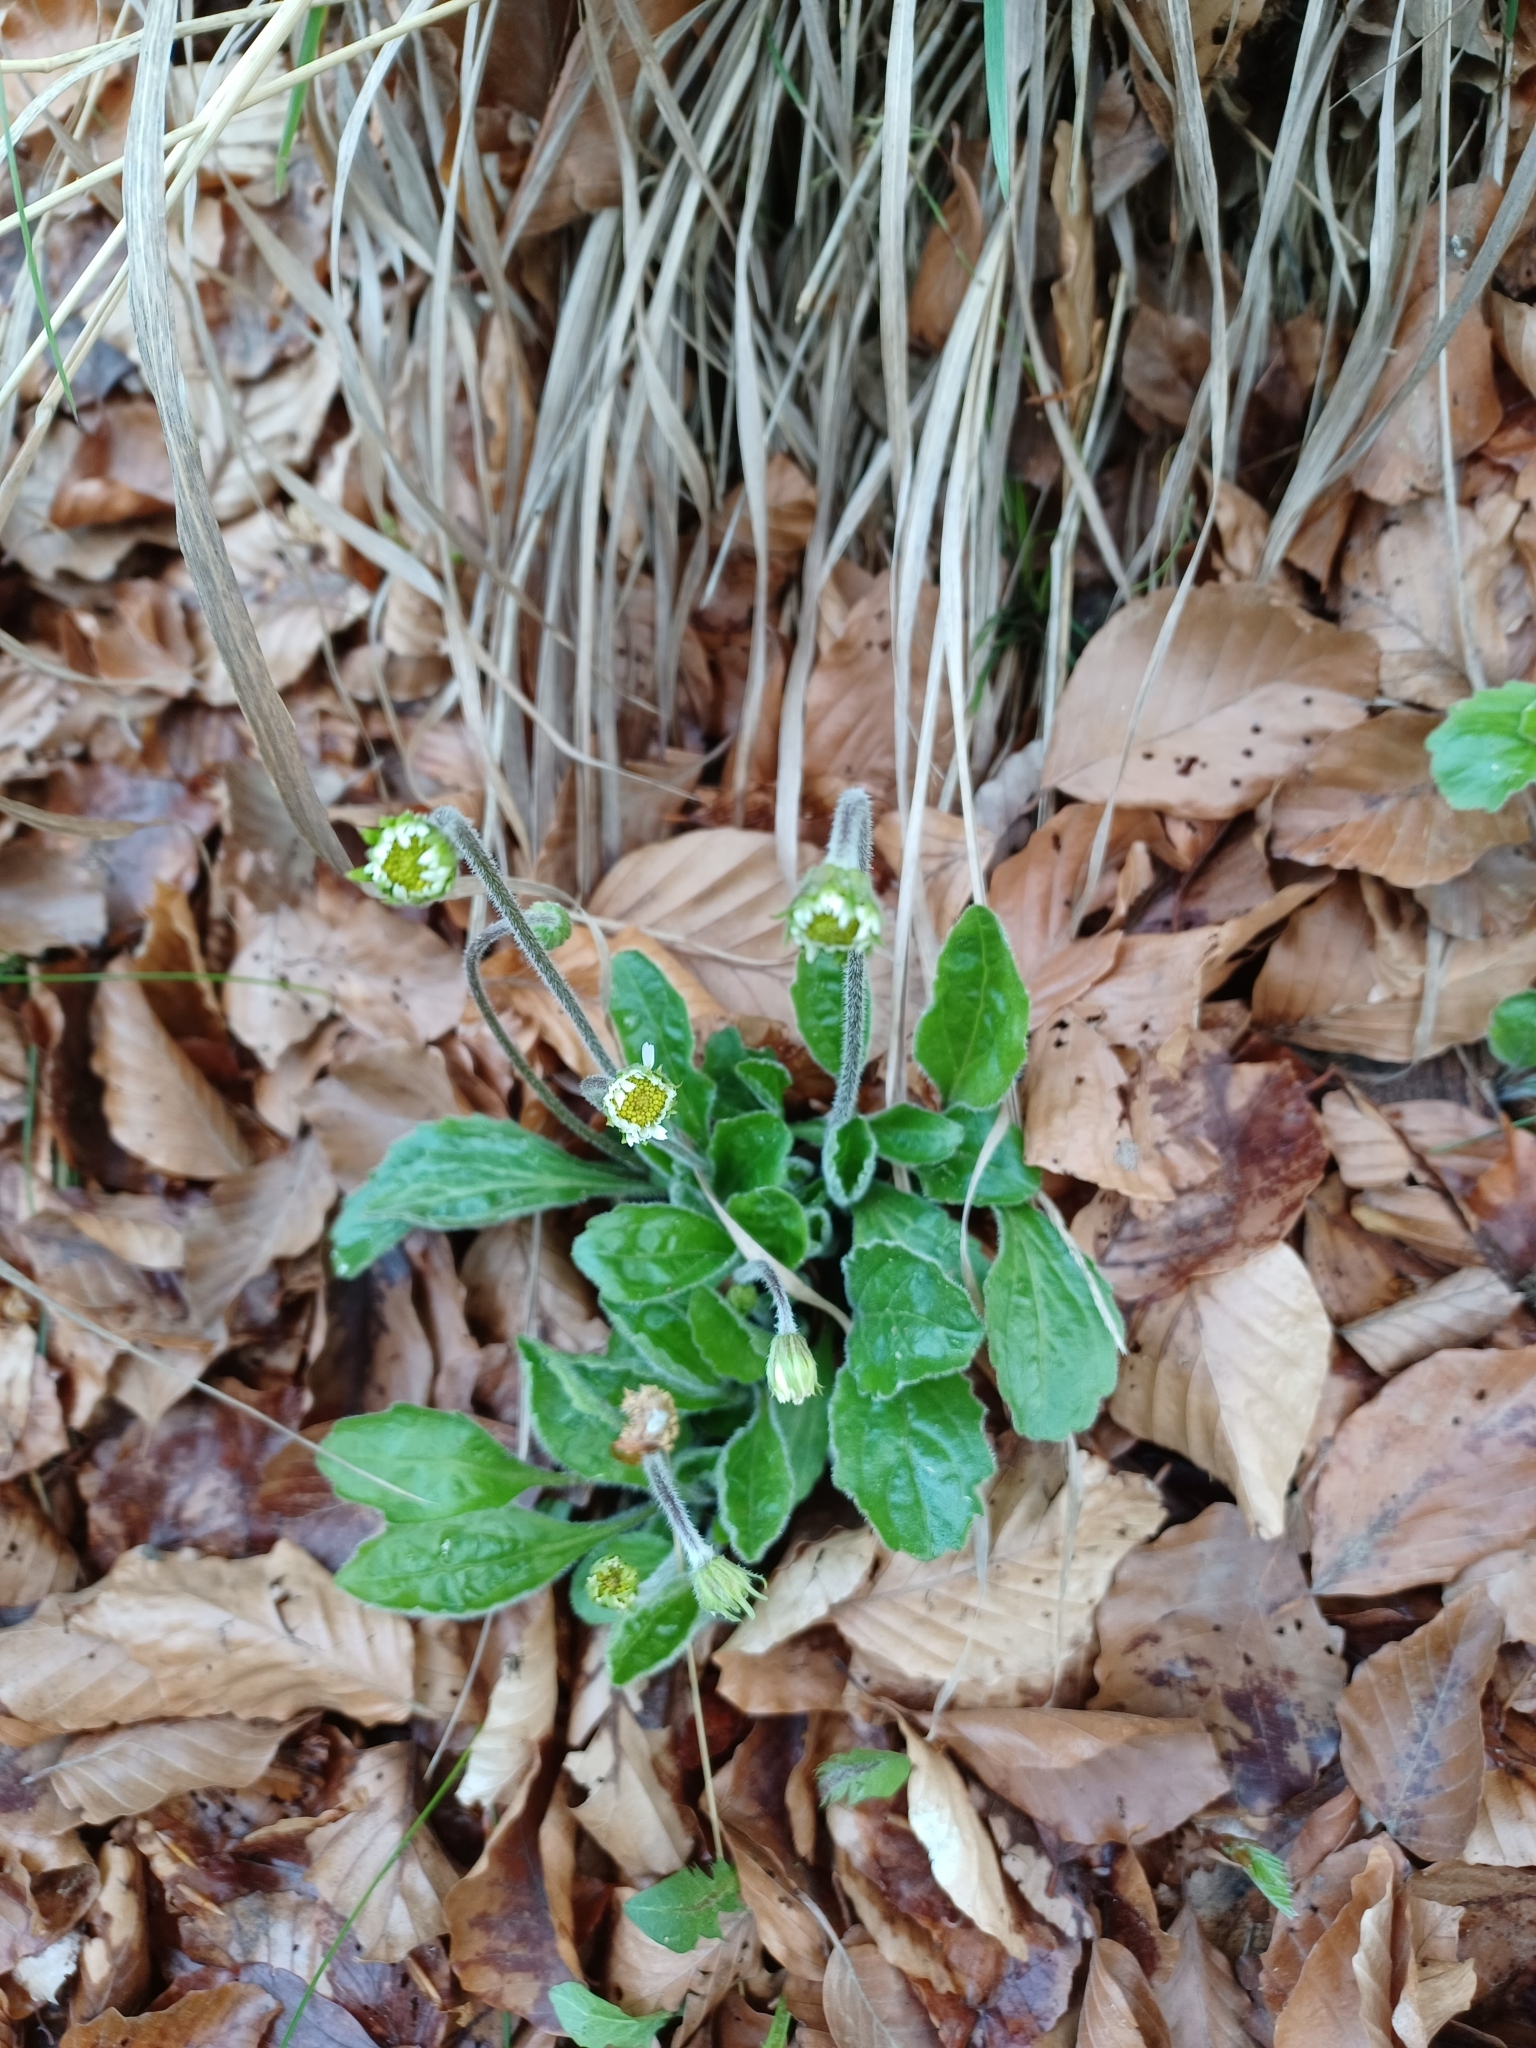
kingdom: Plantae
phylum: Tracheophyta
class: Magnoliopsida
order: Asterales
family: Asteraceae
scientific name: Asteraceae
